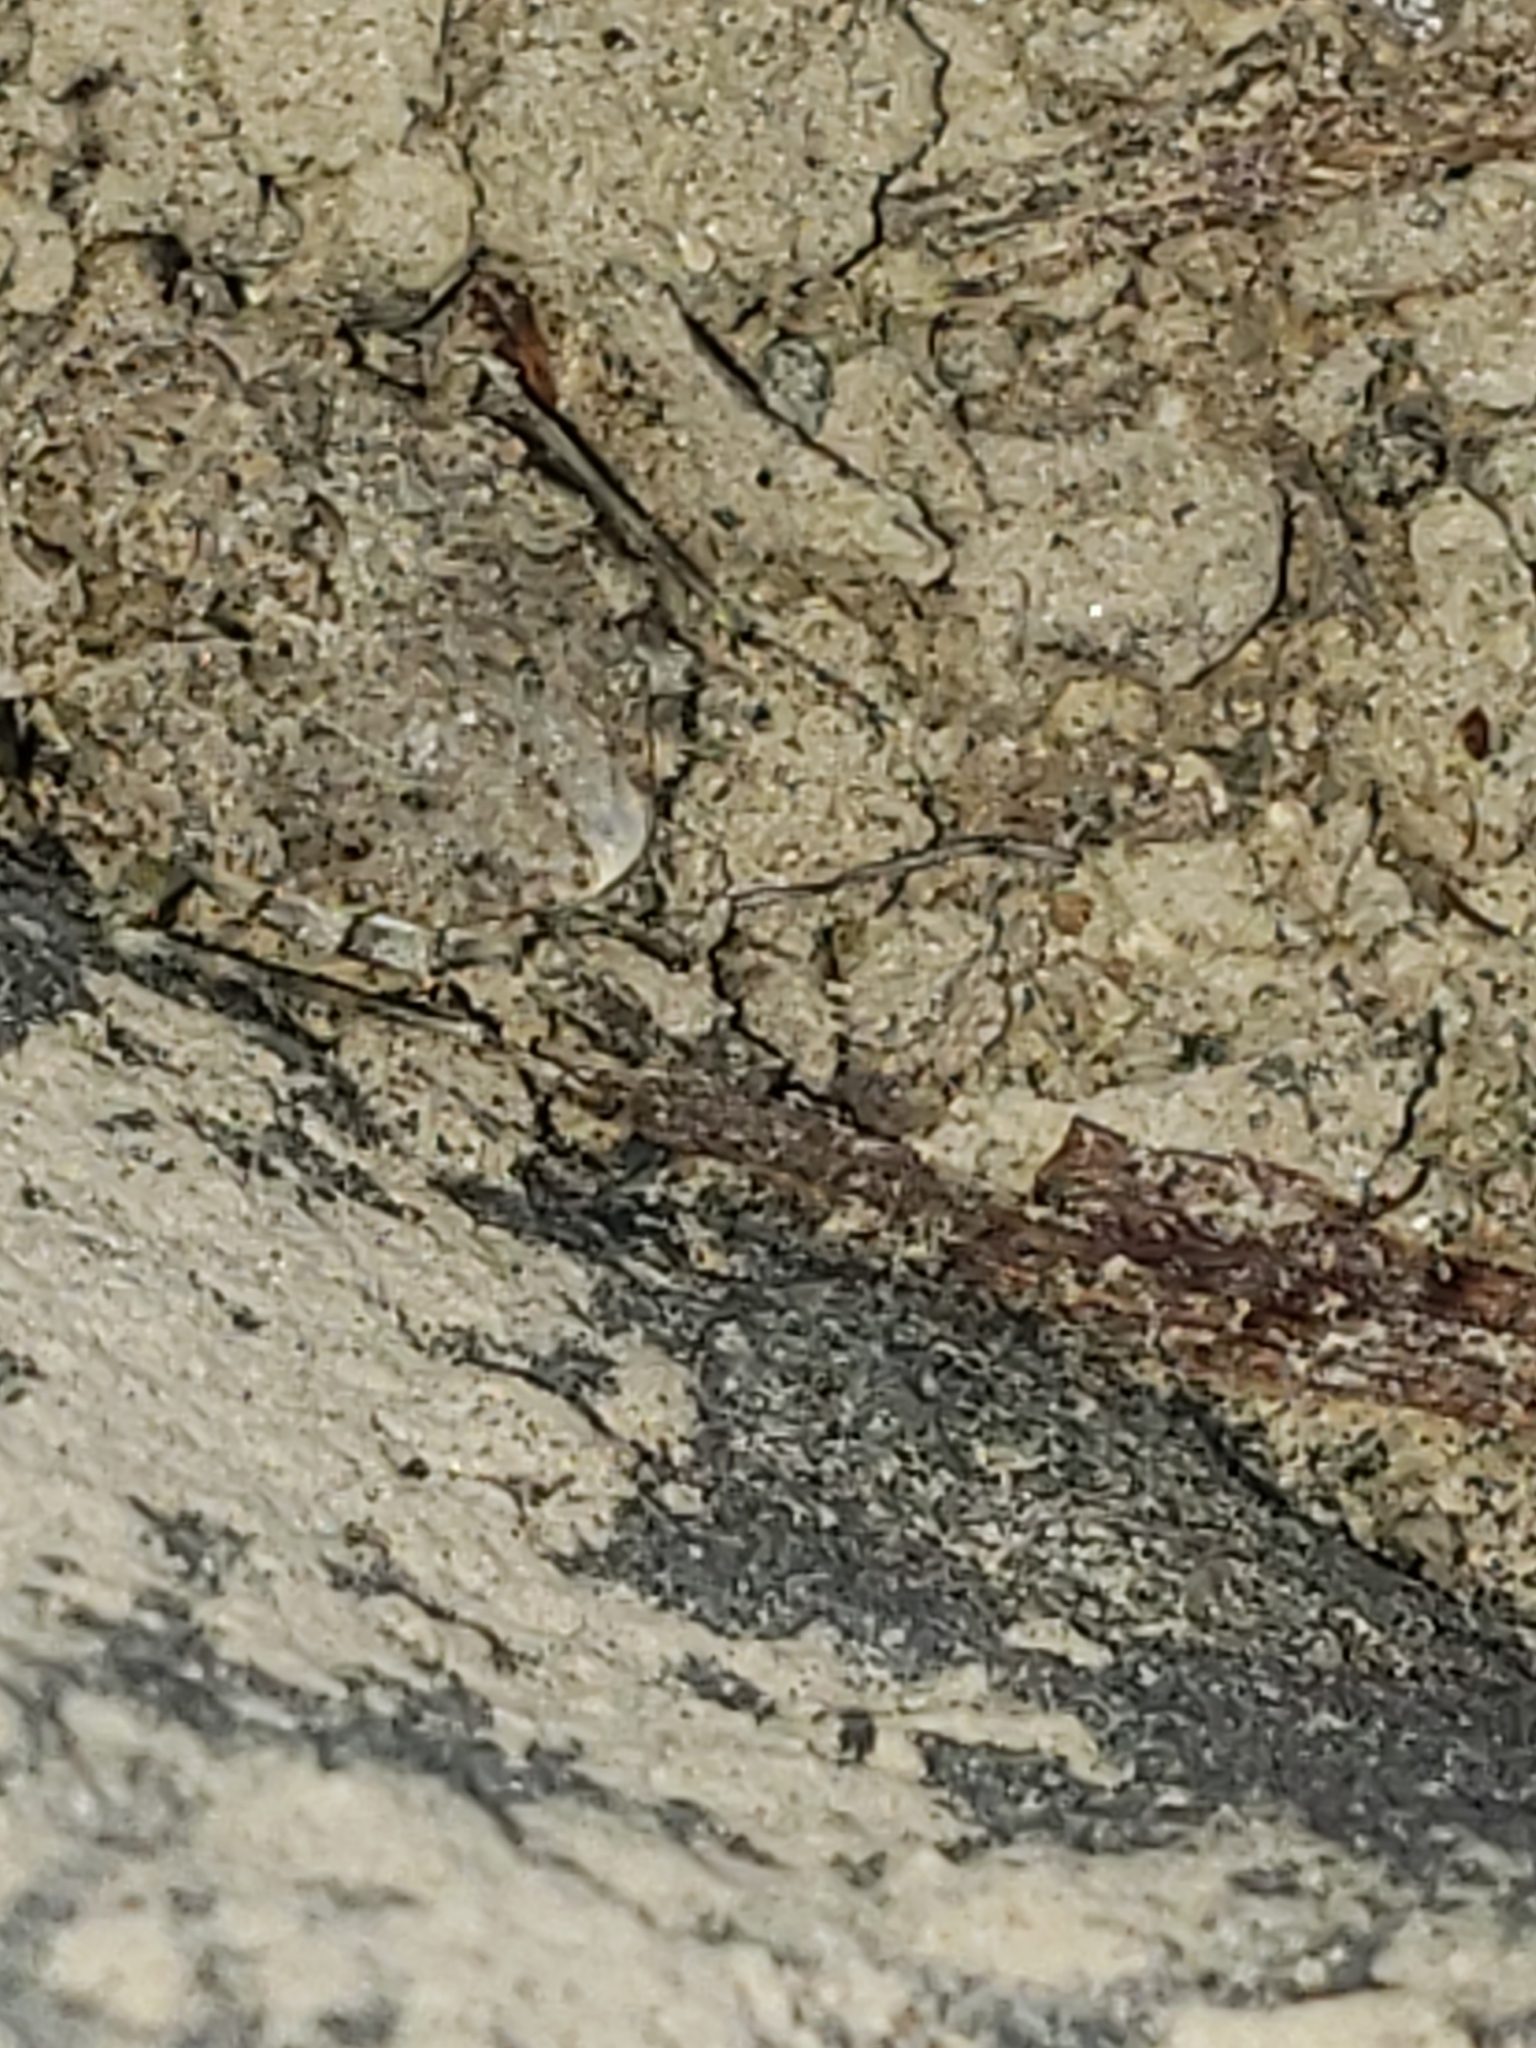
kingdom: Animalia
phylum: Arthropoda
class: Insecta
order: Hemiptera
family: Gelastocoridae
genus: Gelastocoris
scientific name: Gelastocoris oculatus
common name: Toad bug
